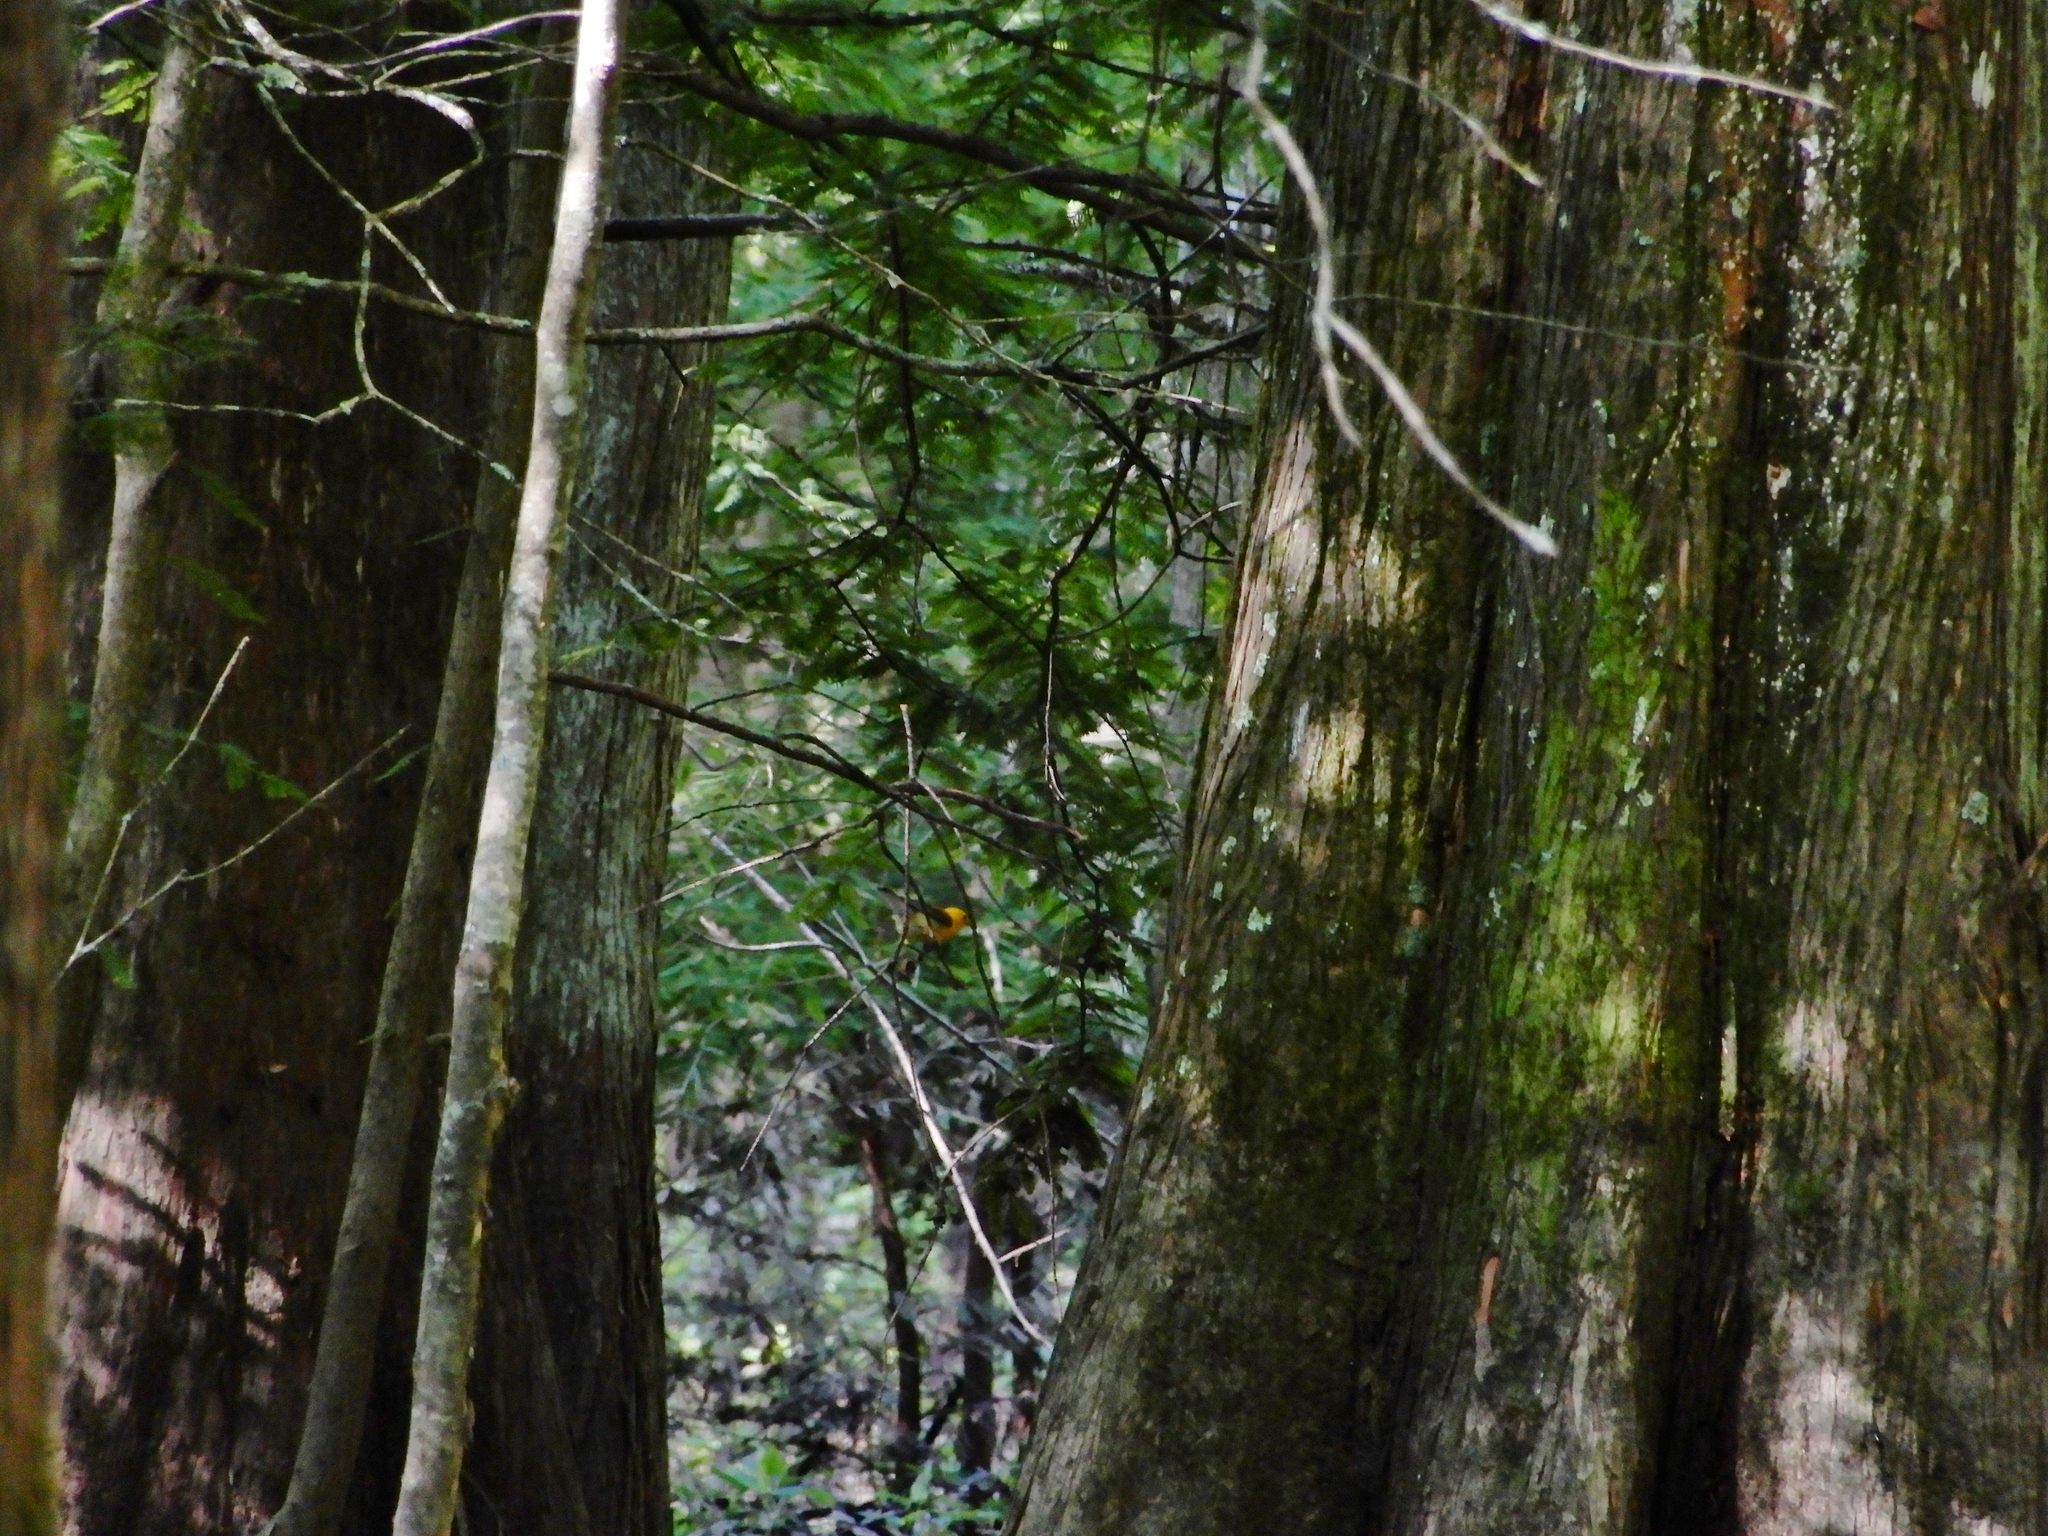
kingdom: Animalia
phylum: Chordata
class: Aves
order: Passeriformes
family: Parulidae
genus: Protonotaria
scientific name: Protonotaria citrea
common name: Prothonotary warbler
